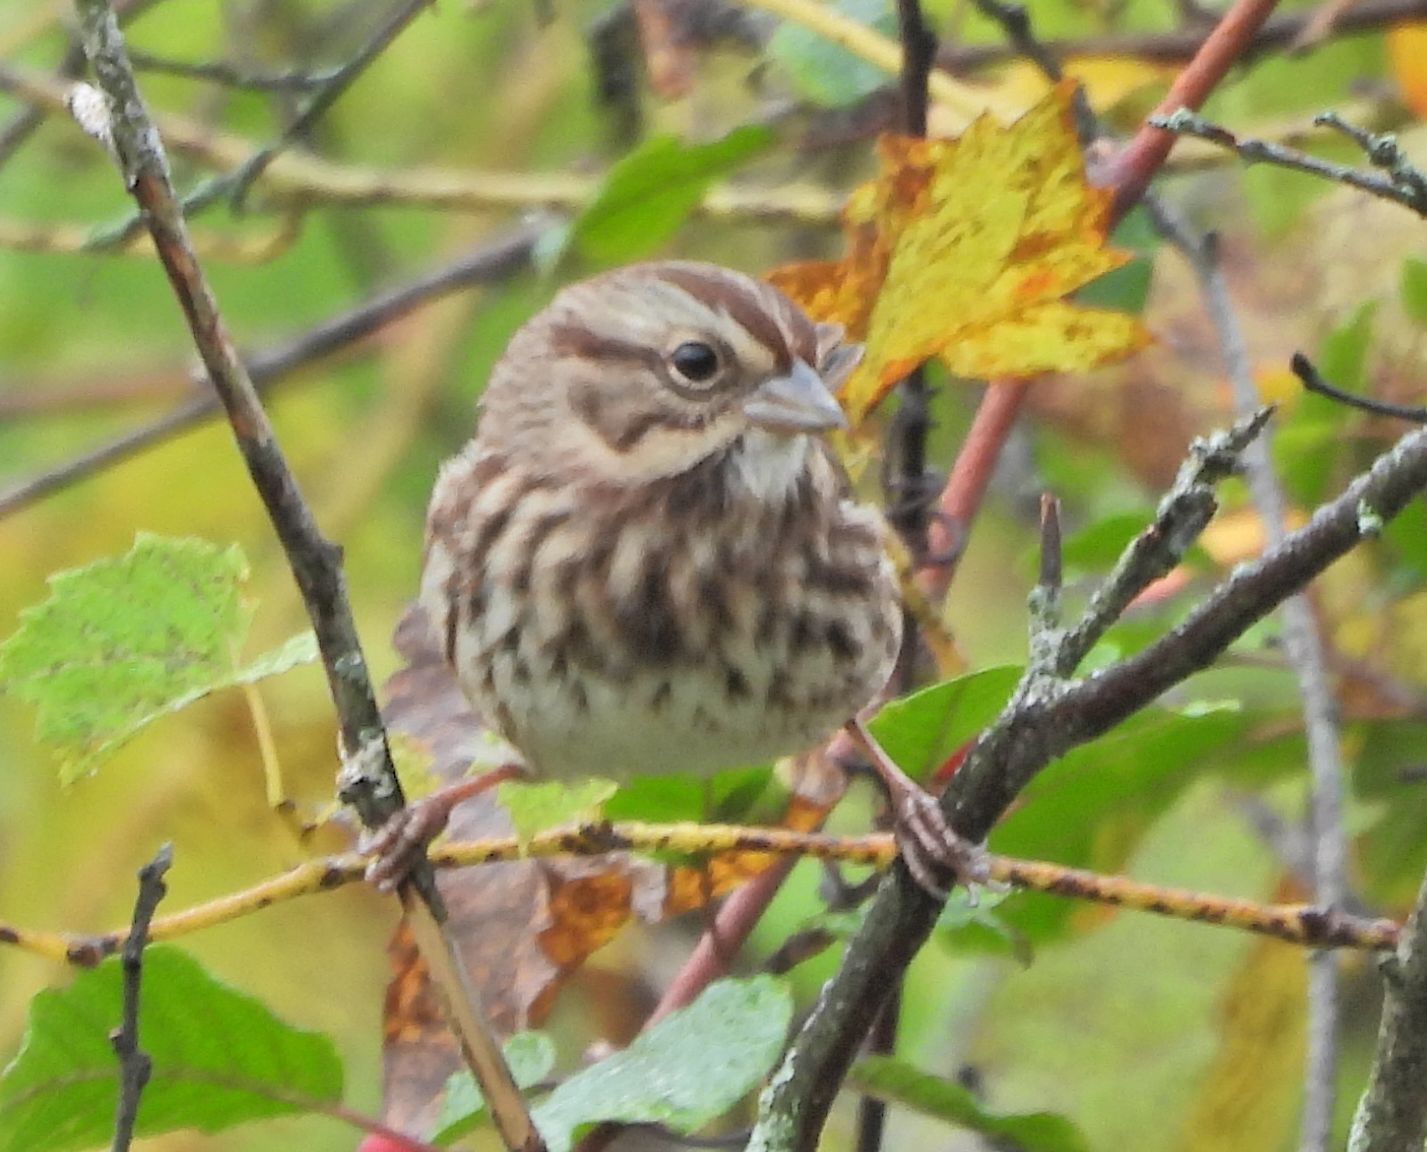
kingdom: Animalia
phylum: Chordata
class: Aves
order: Passeriformes
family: Passerellidae
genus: Melospiza
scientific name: Melospiza melodia
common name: Song sparrow
